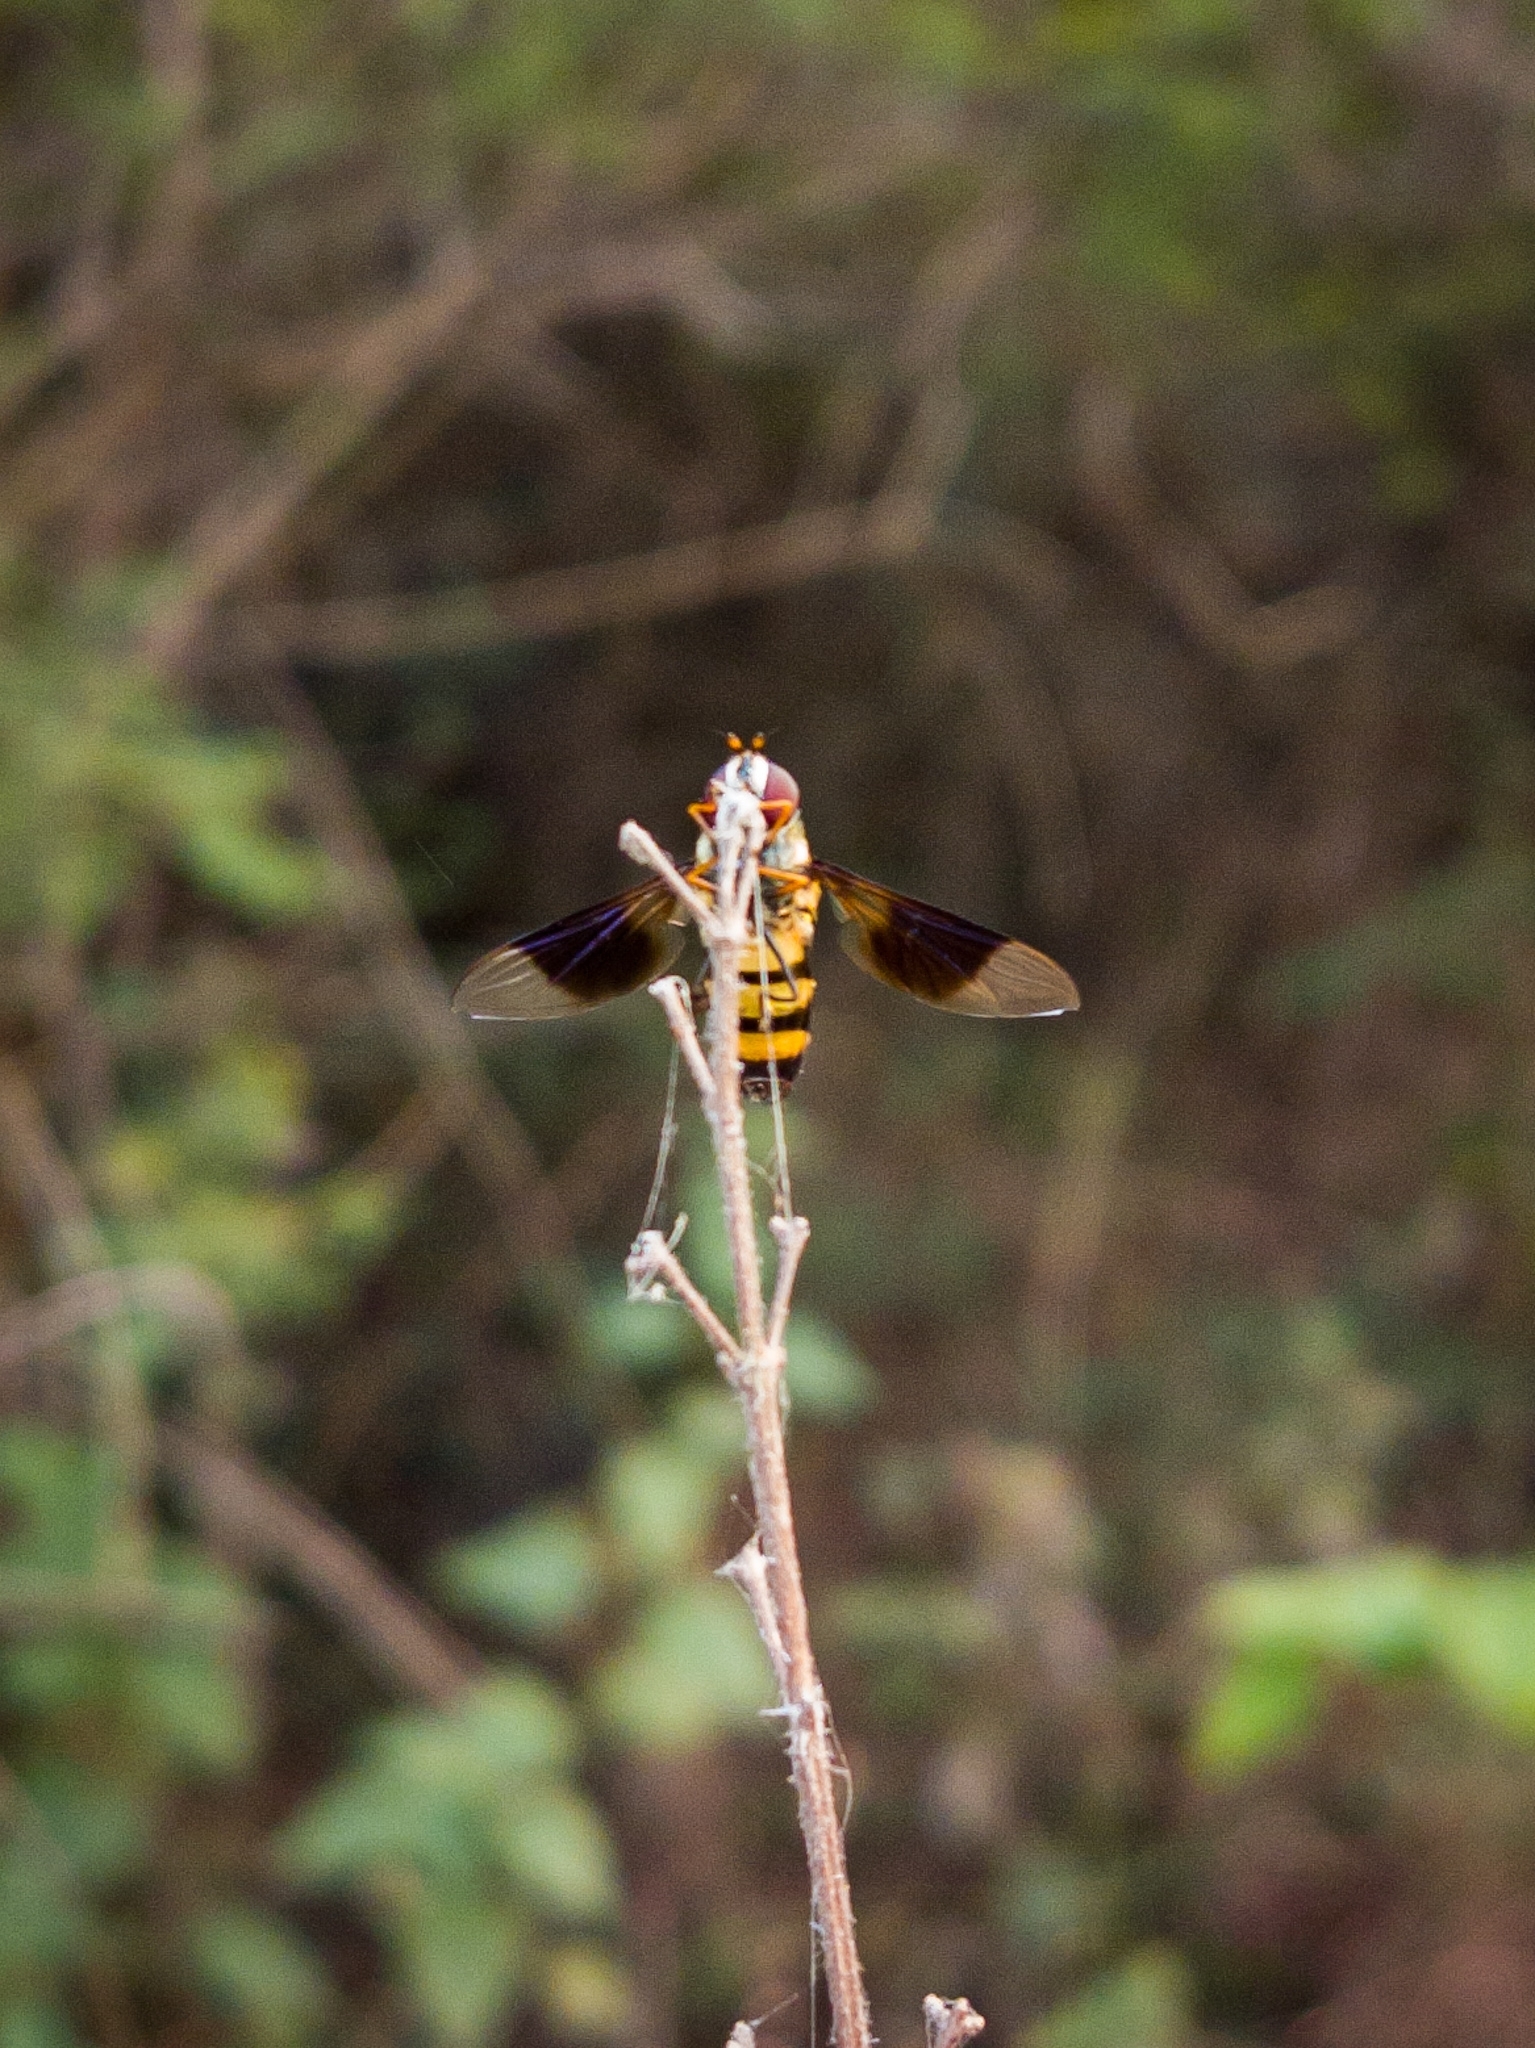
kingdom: Animalia
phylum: Arthropoda
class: Insecta
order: Diptera
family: Syrphidae
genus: Dideopsis
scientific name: Dideopsis aegrota
